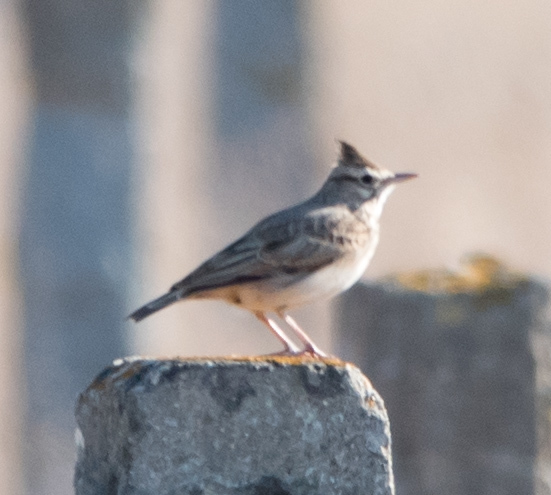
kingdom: Animalia
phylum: Chordata
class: Aves
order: Passeriformes
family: Alaudidae
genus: Galerida
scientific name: Galerida cristata
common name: Crested lark
